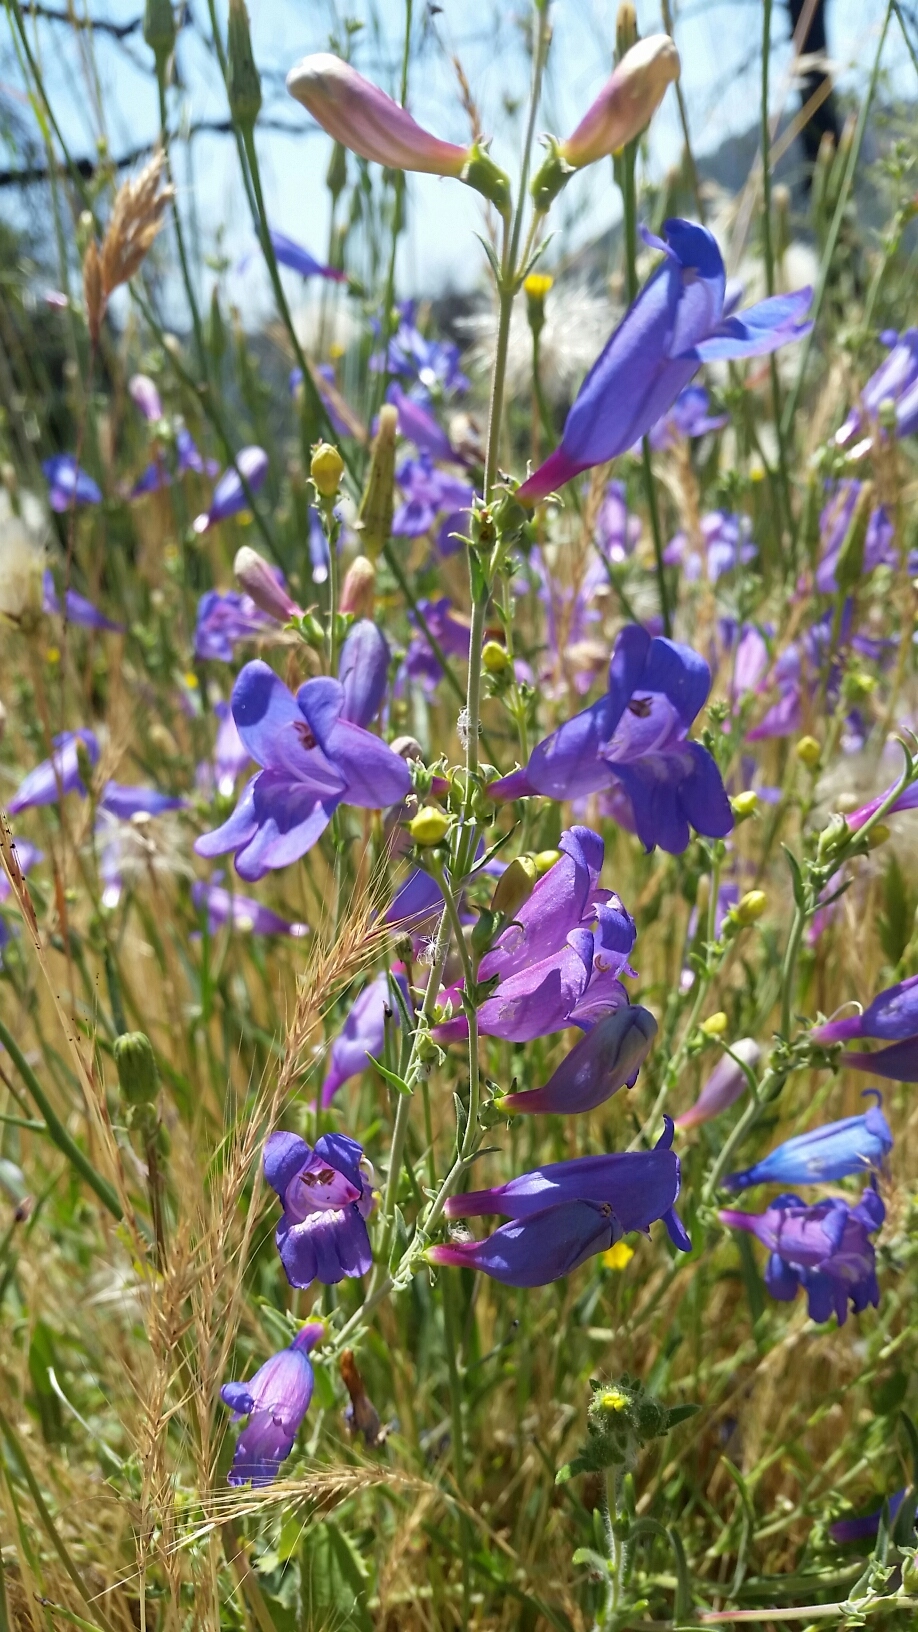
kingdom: Plantae
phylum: Tracheophyta
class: Magnoliopsida
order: Lamiales
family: Plantaginaceae
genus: Penstemon
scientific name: Penstemon heterophyllus
